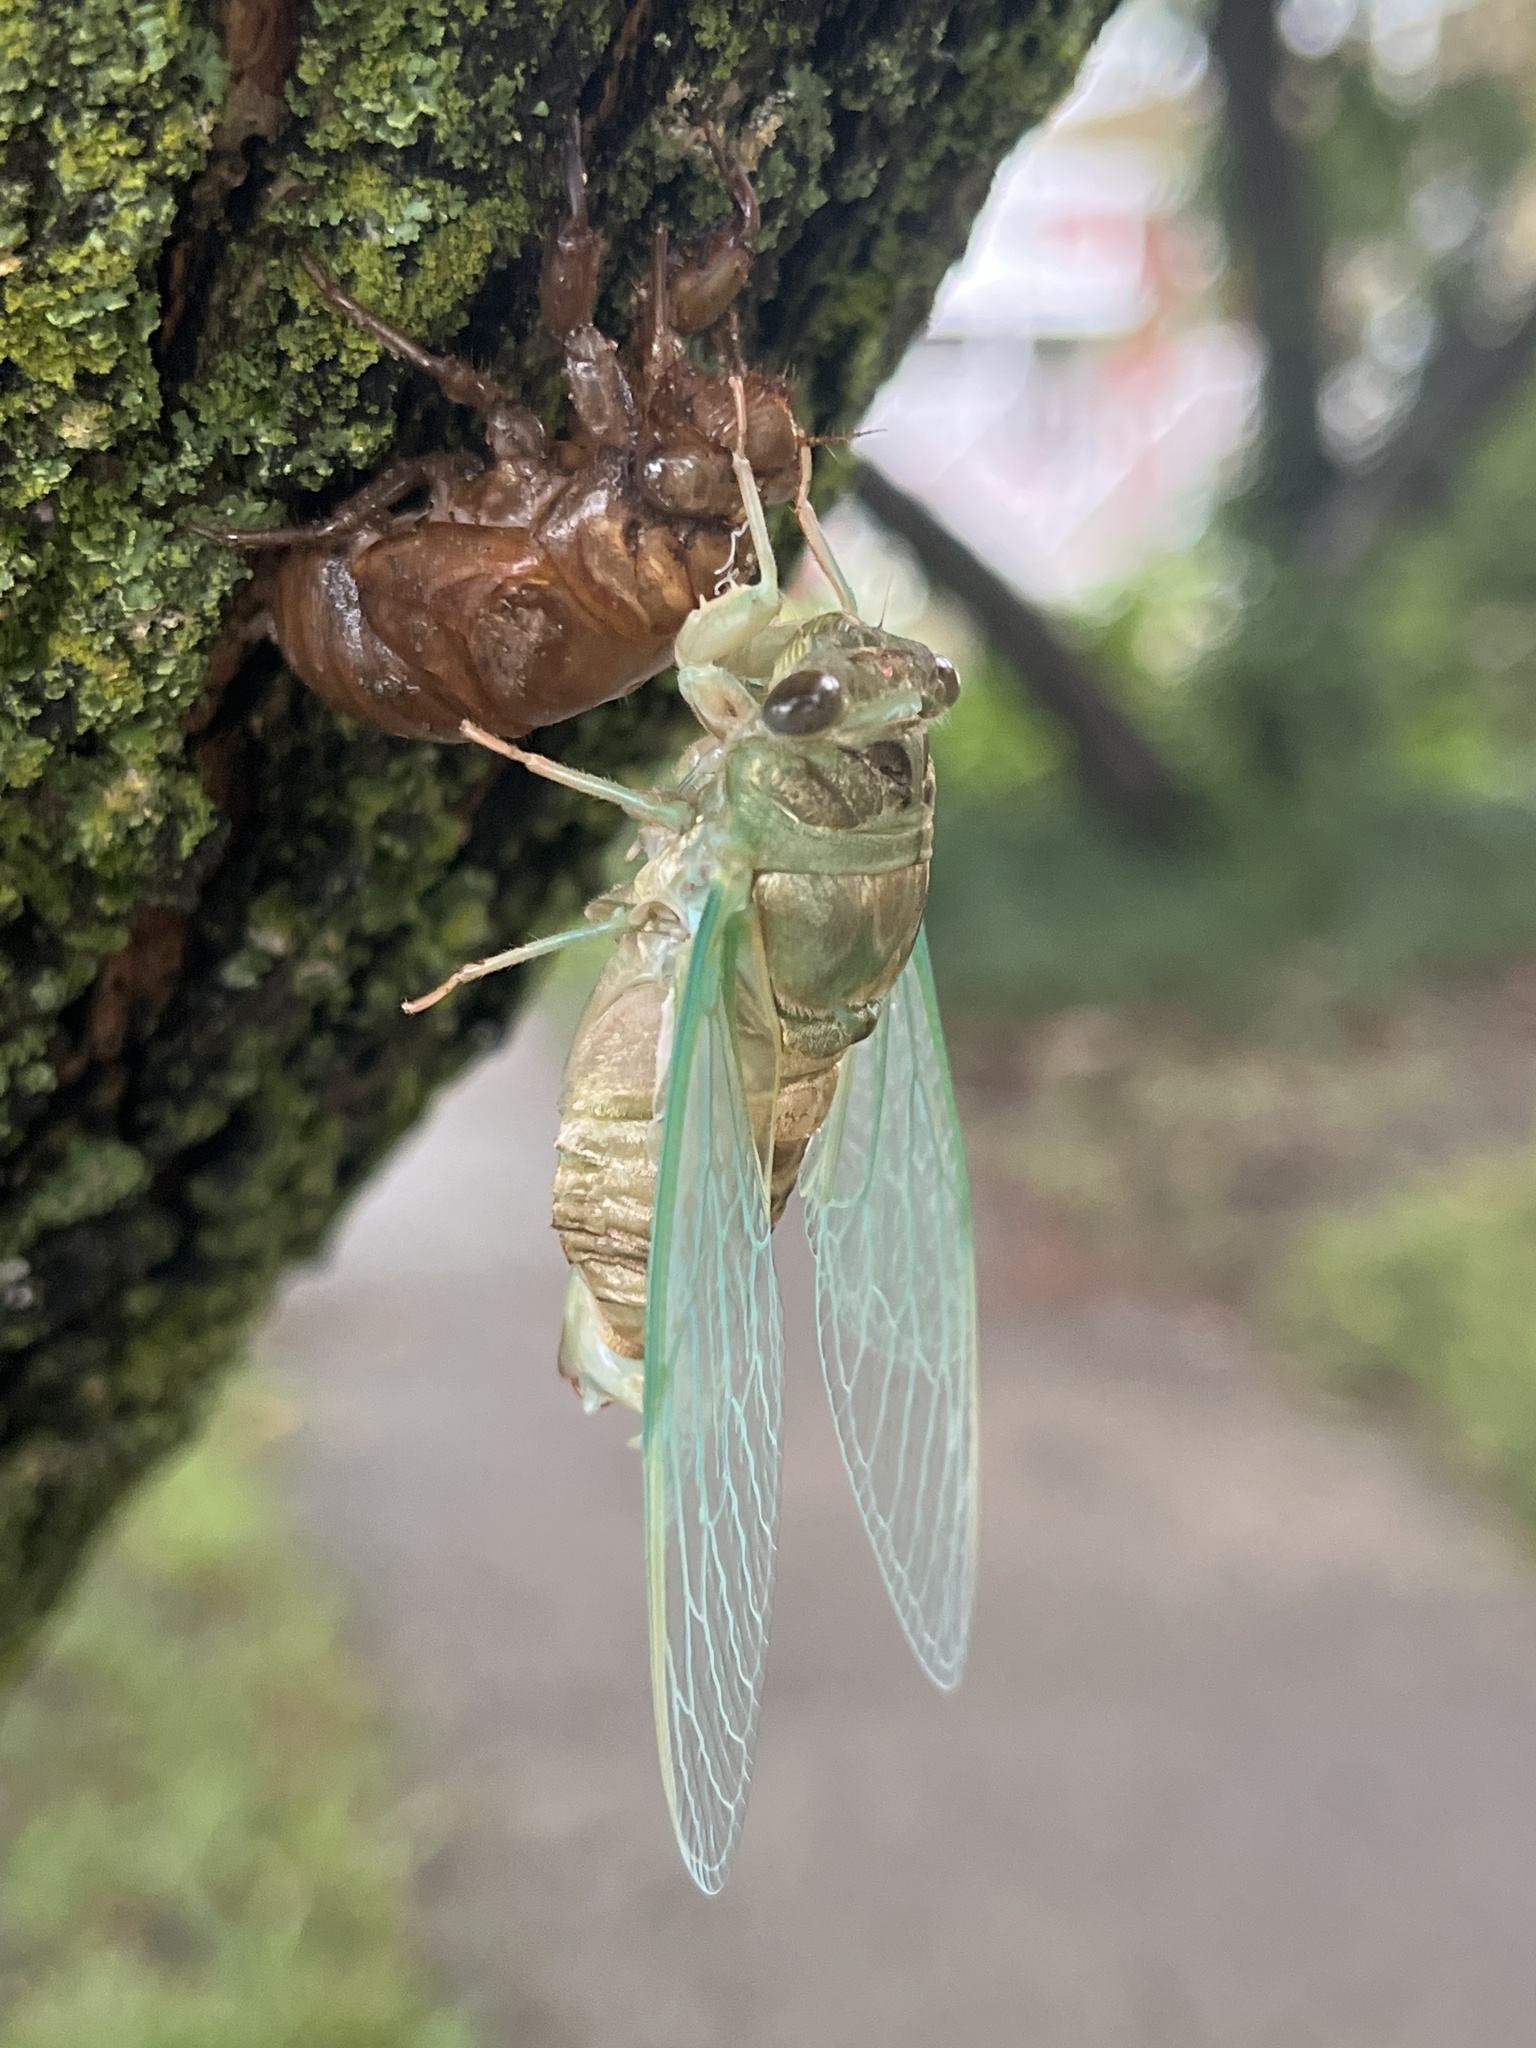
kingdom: Animalia
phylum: Arthropoda
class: Insecta
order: Hemiptera
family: Cicadidae
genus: Neotibicen
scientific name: Neotibicen pruinosus
